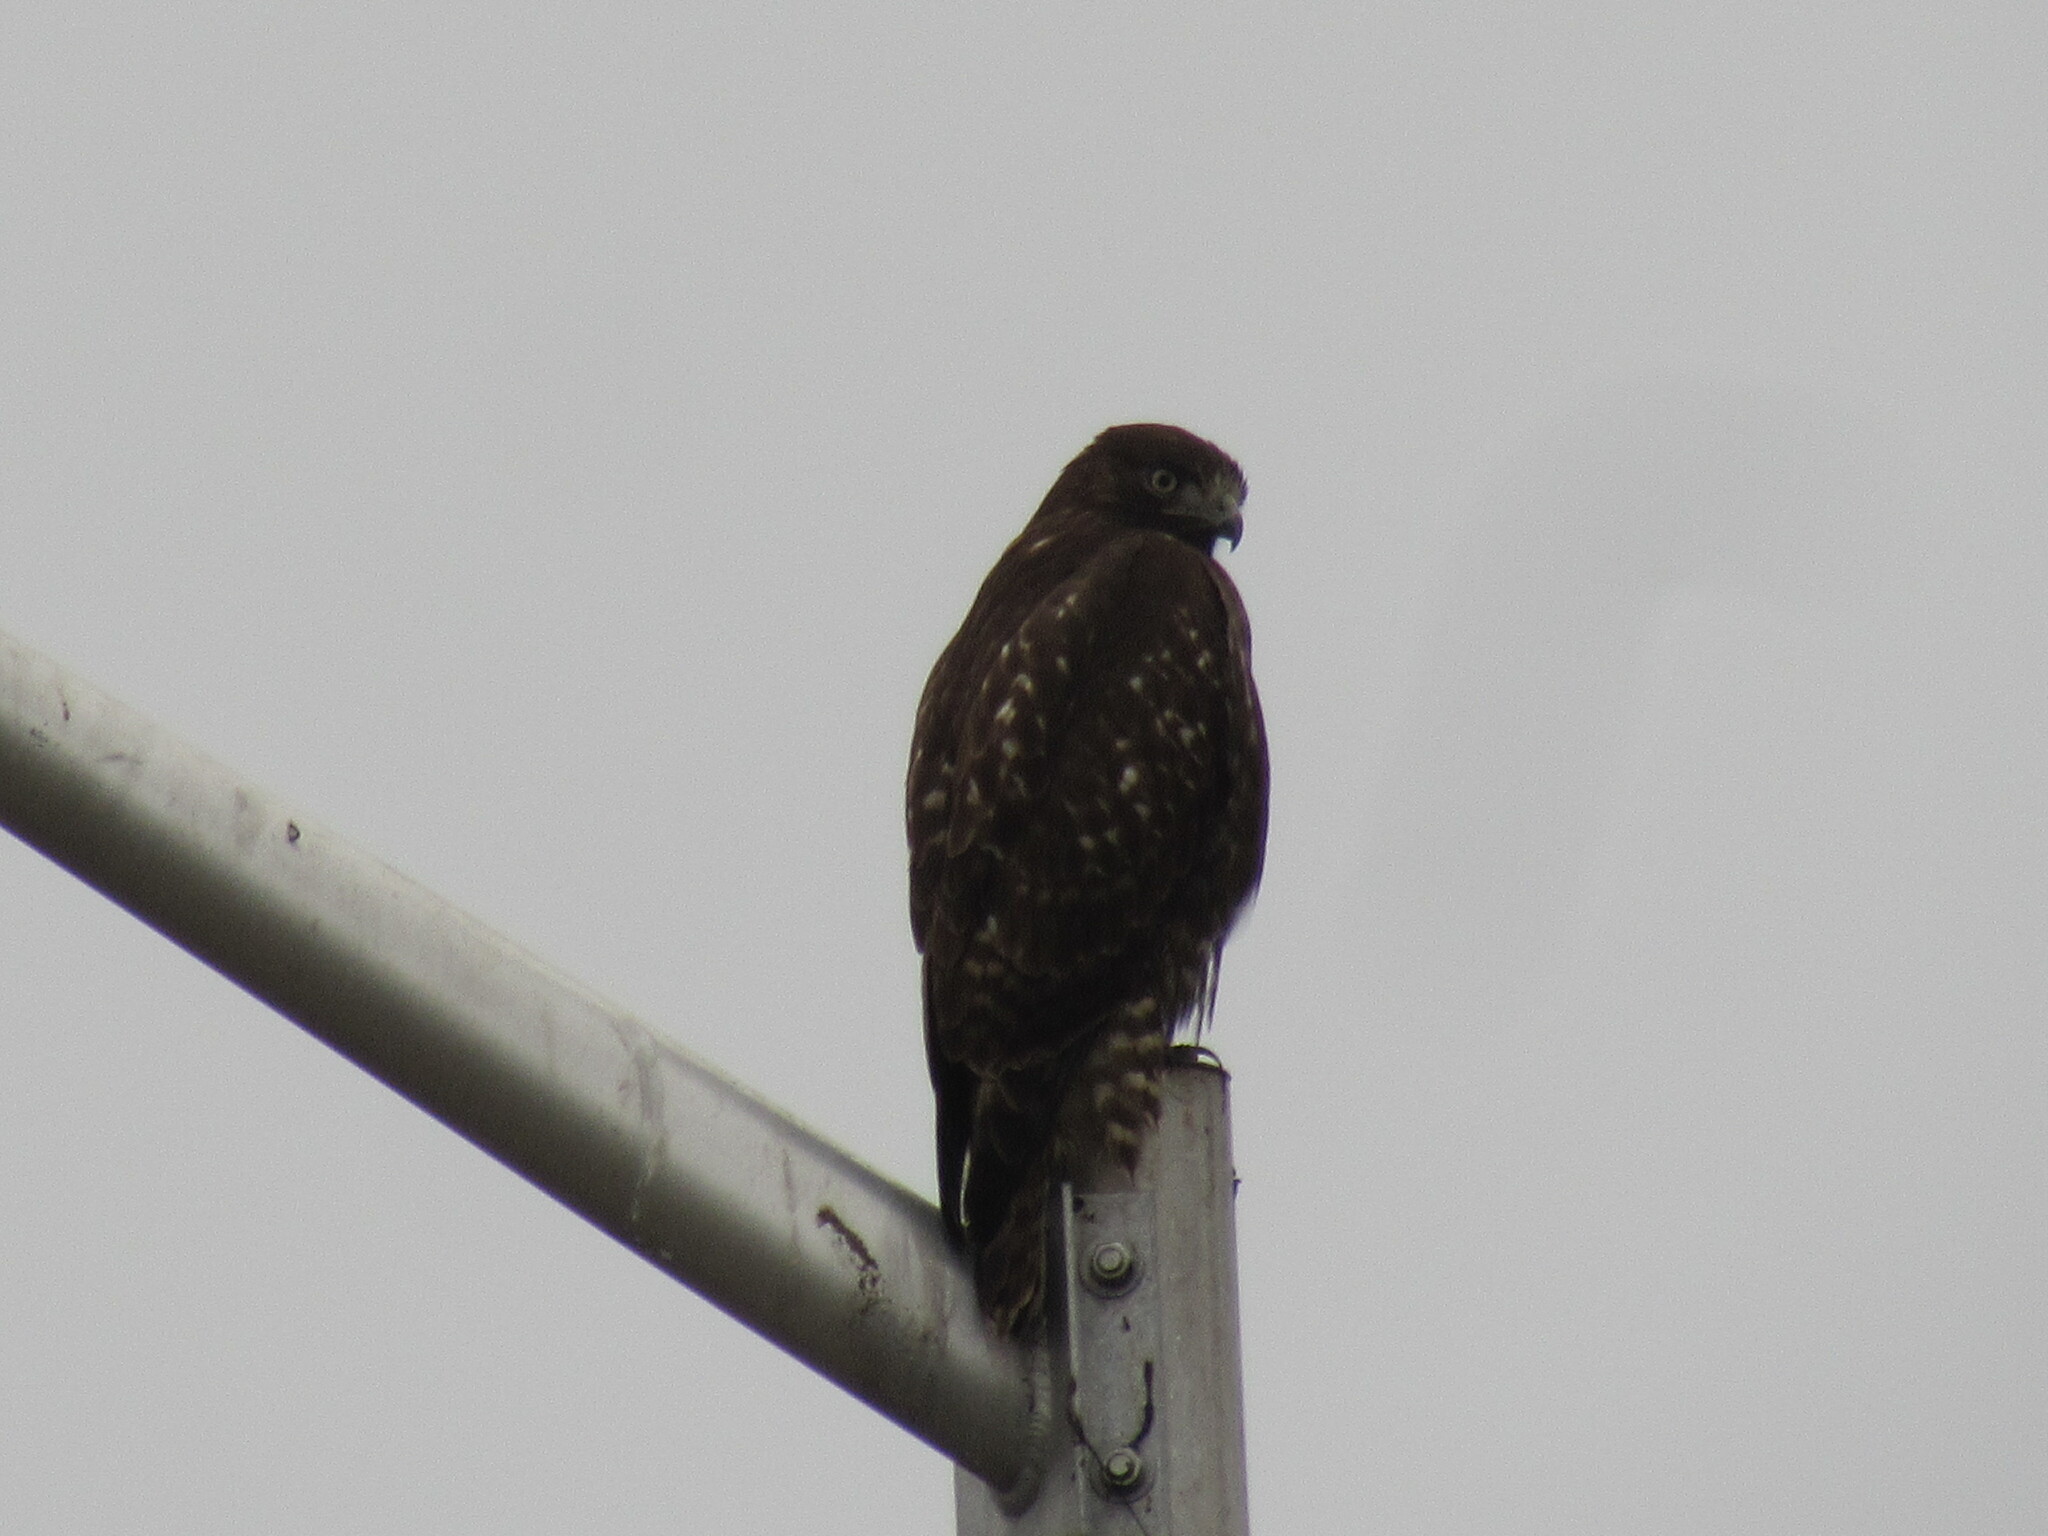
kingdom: Animalia
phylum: Chordata
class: Aves
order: Accipitriformes
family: Accipitridae
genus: Buteo
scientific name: Buteo jamaicensis
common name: Red-tailed hawk
